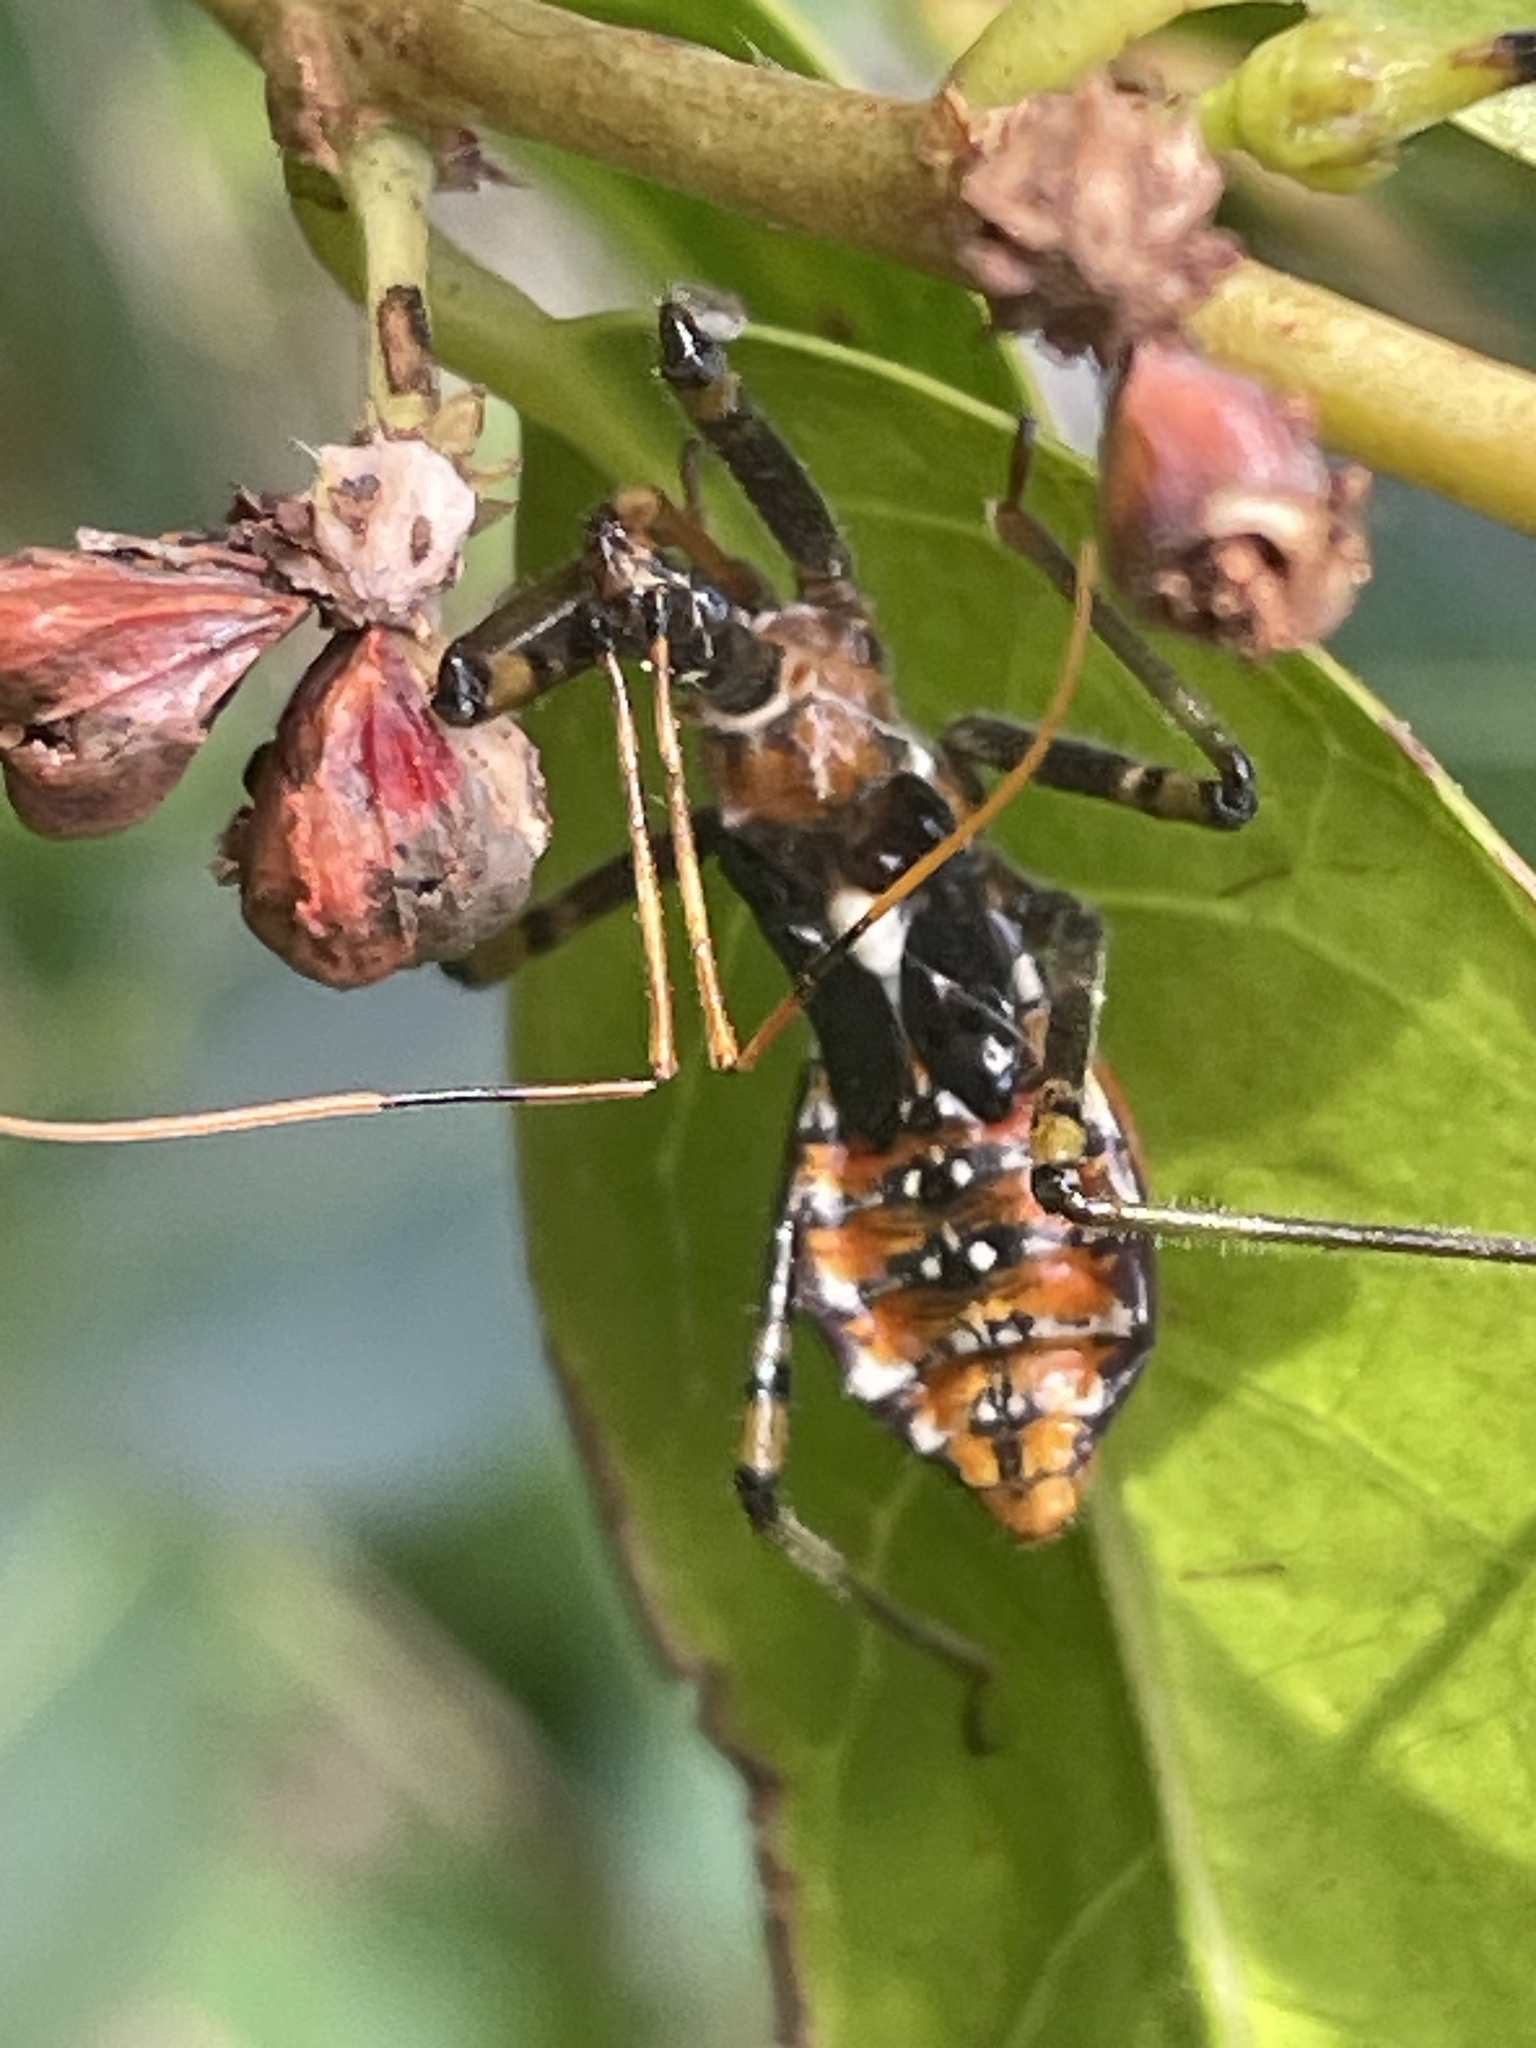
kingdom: Animalia
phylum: Arthropoda
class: Insecta
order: Hemiptera
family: Reduviidae
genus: Pristhesancus
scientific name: Pristhesancus plagipennis
